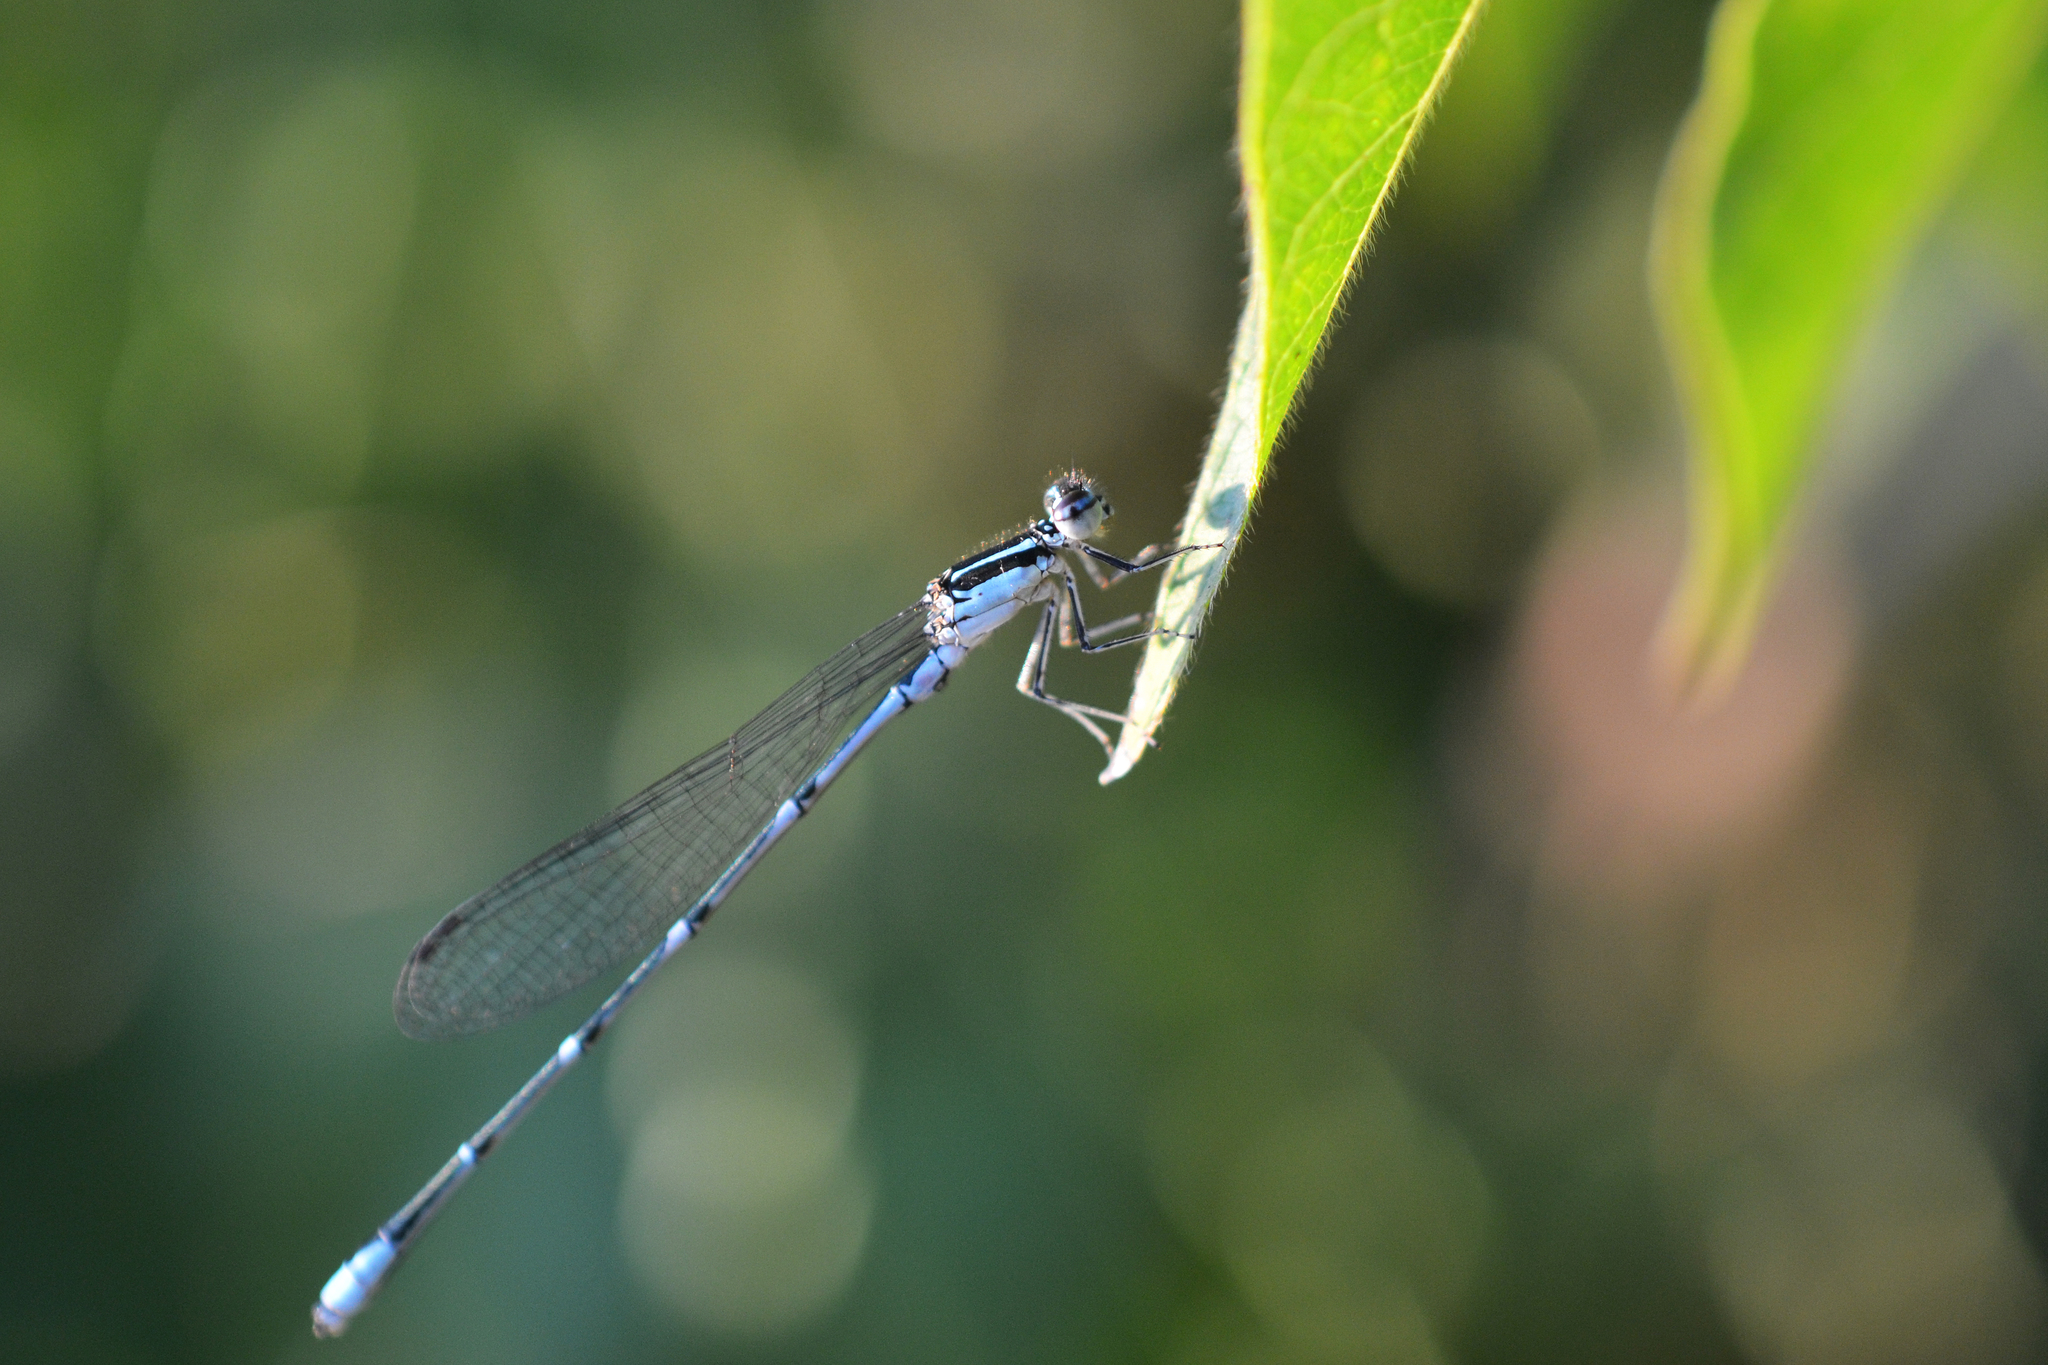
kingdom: Animalia
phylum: Arthropoda
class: Insecta
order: Odonata
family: Coenagrionidae
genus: Enallagma
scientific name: Enallagma exsulans
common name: Stream bluet
